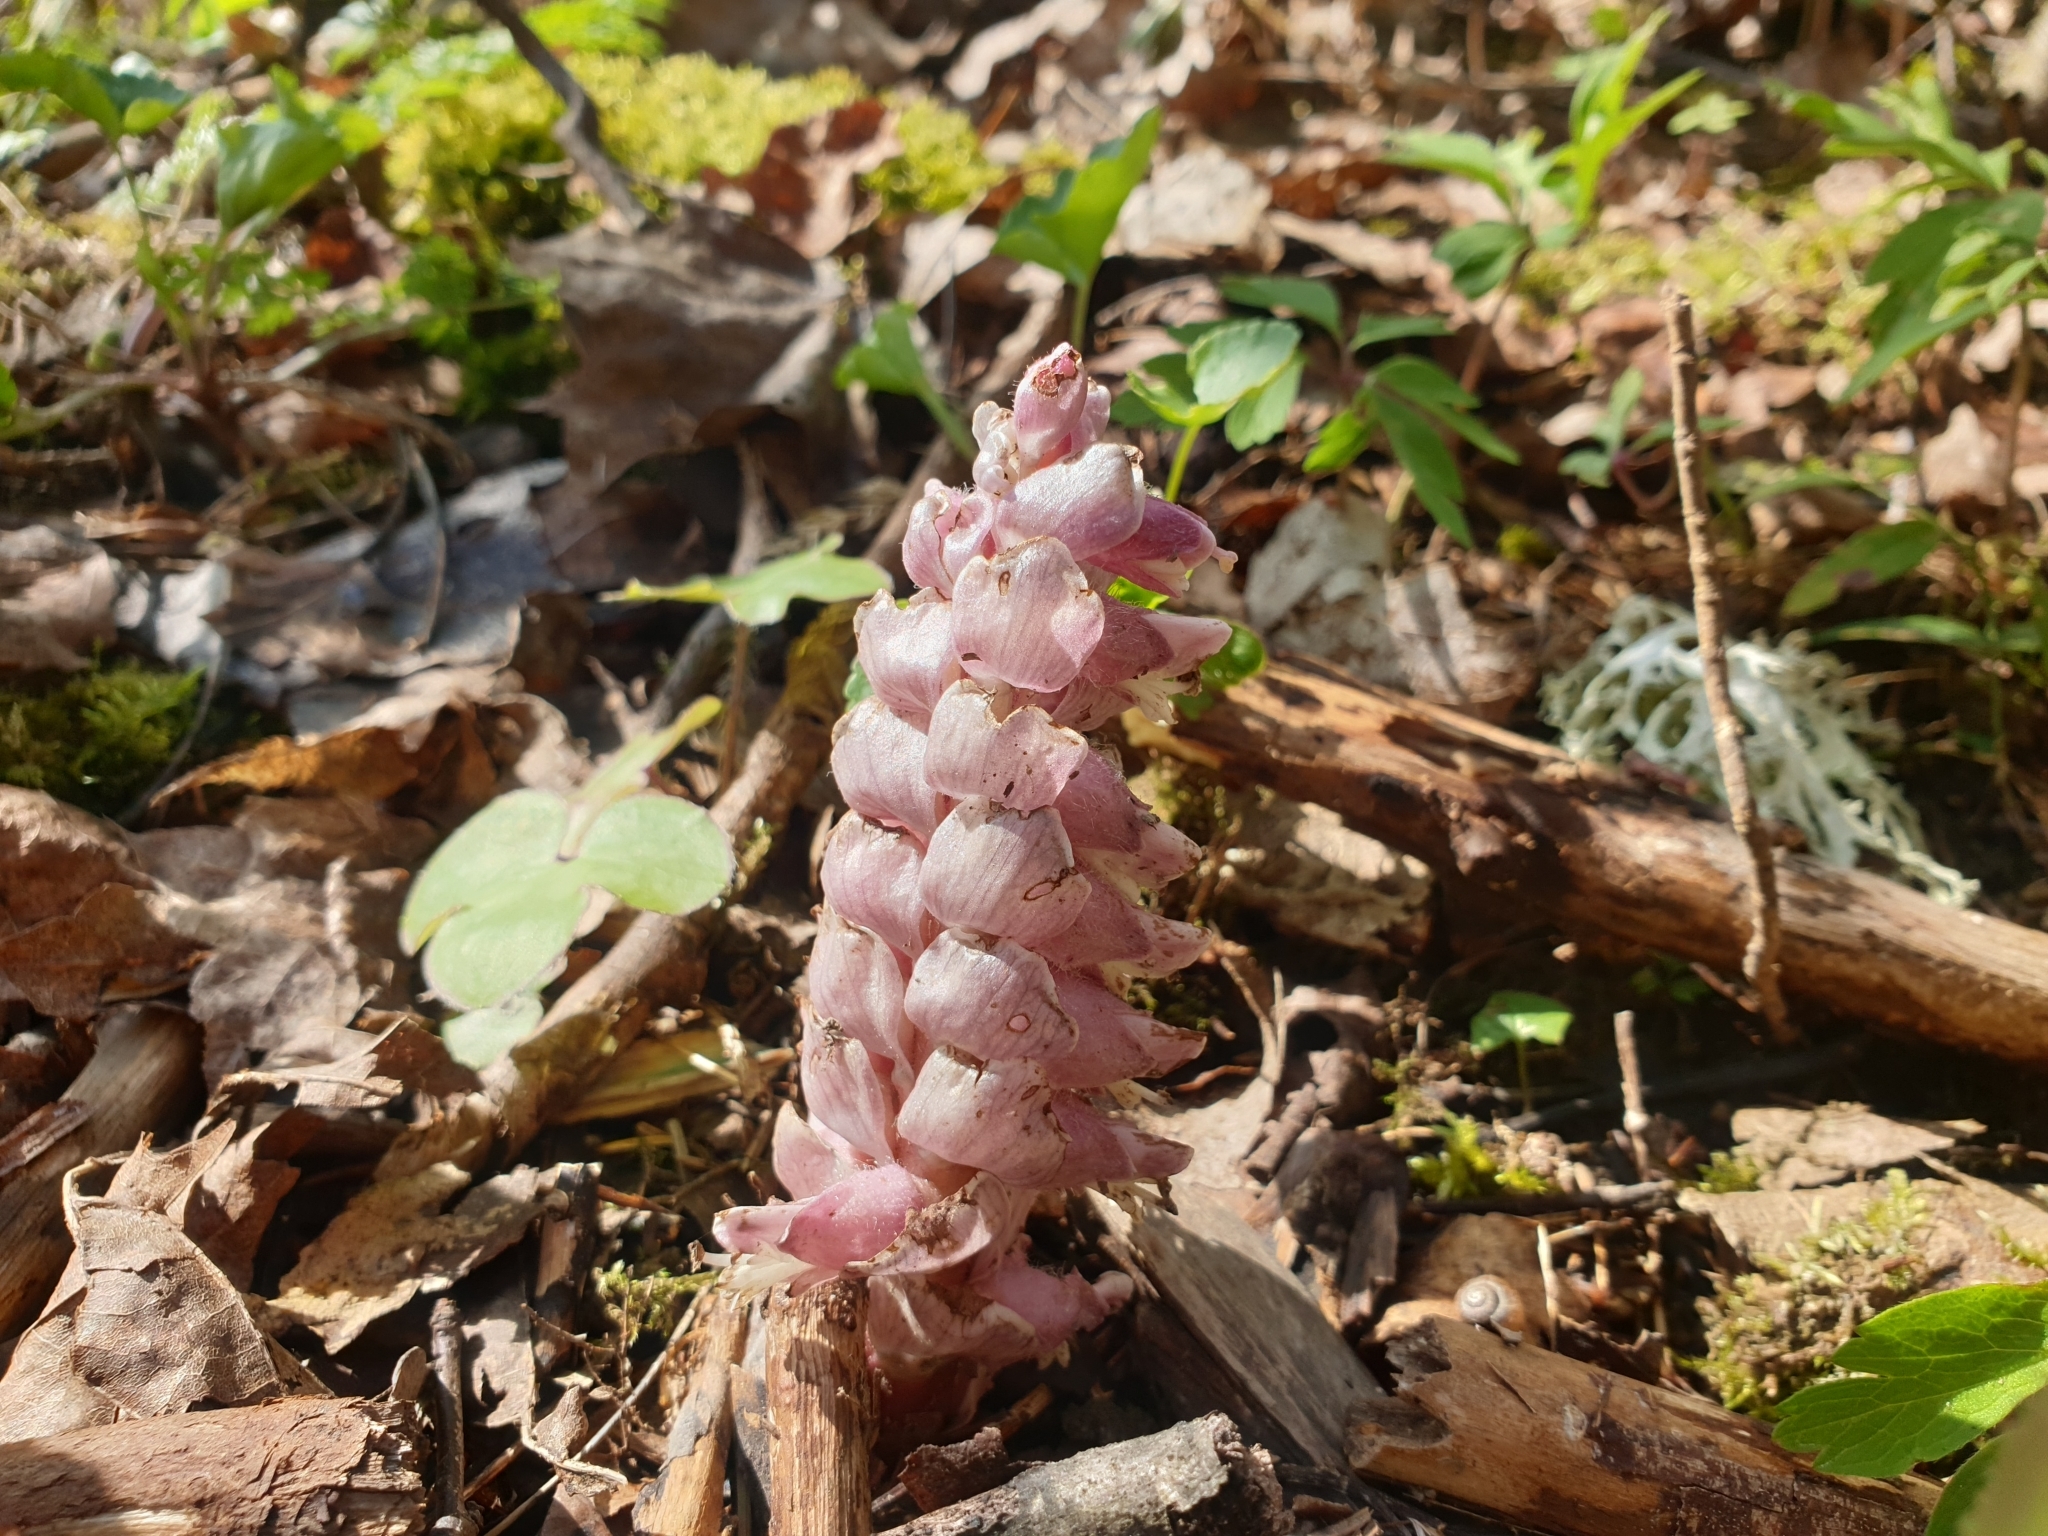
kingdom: Plantae
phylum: Tracheophyta
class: Magnoliopsida
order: Lamiales
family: Orobanchaceae
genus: Lathraea
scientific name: Lathraea squamaria
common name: Toothwort
